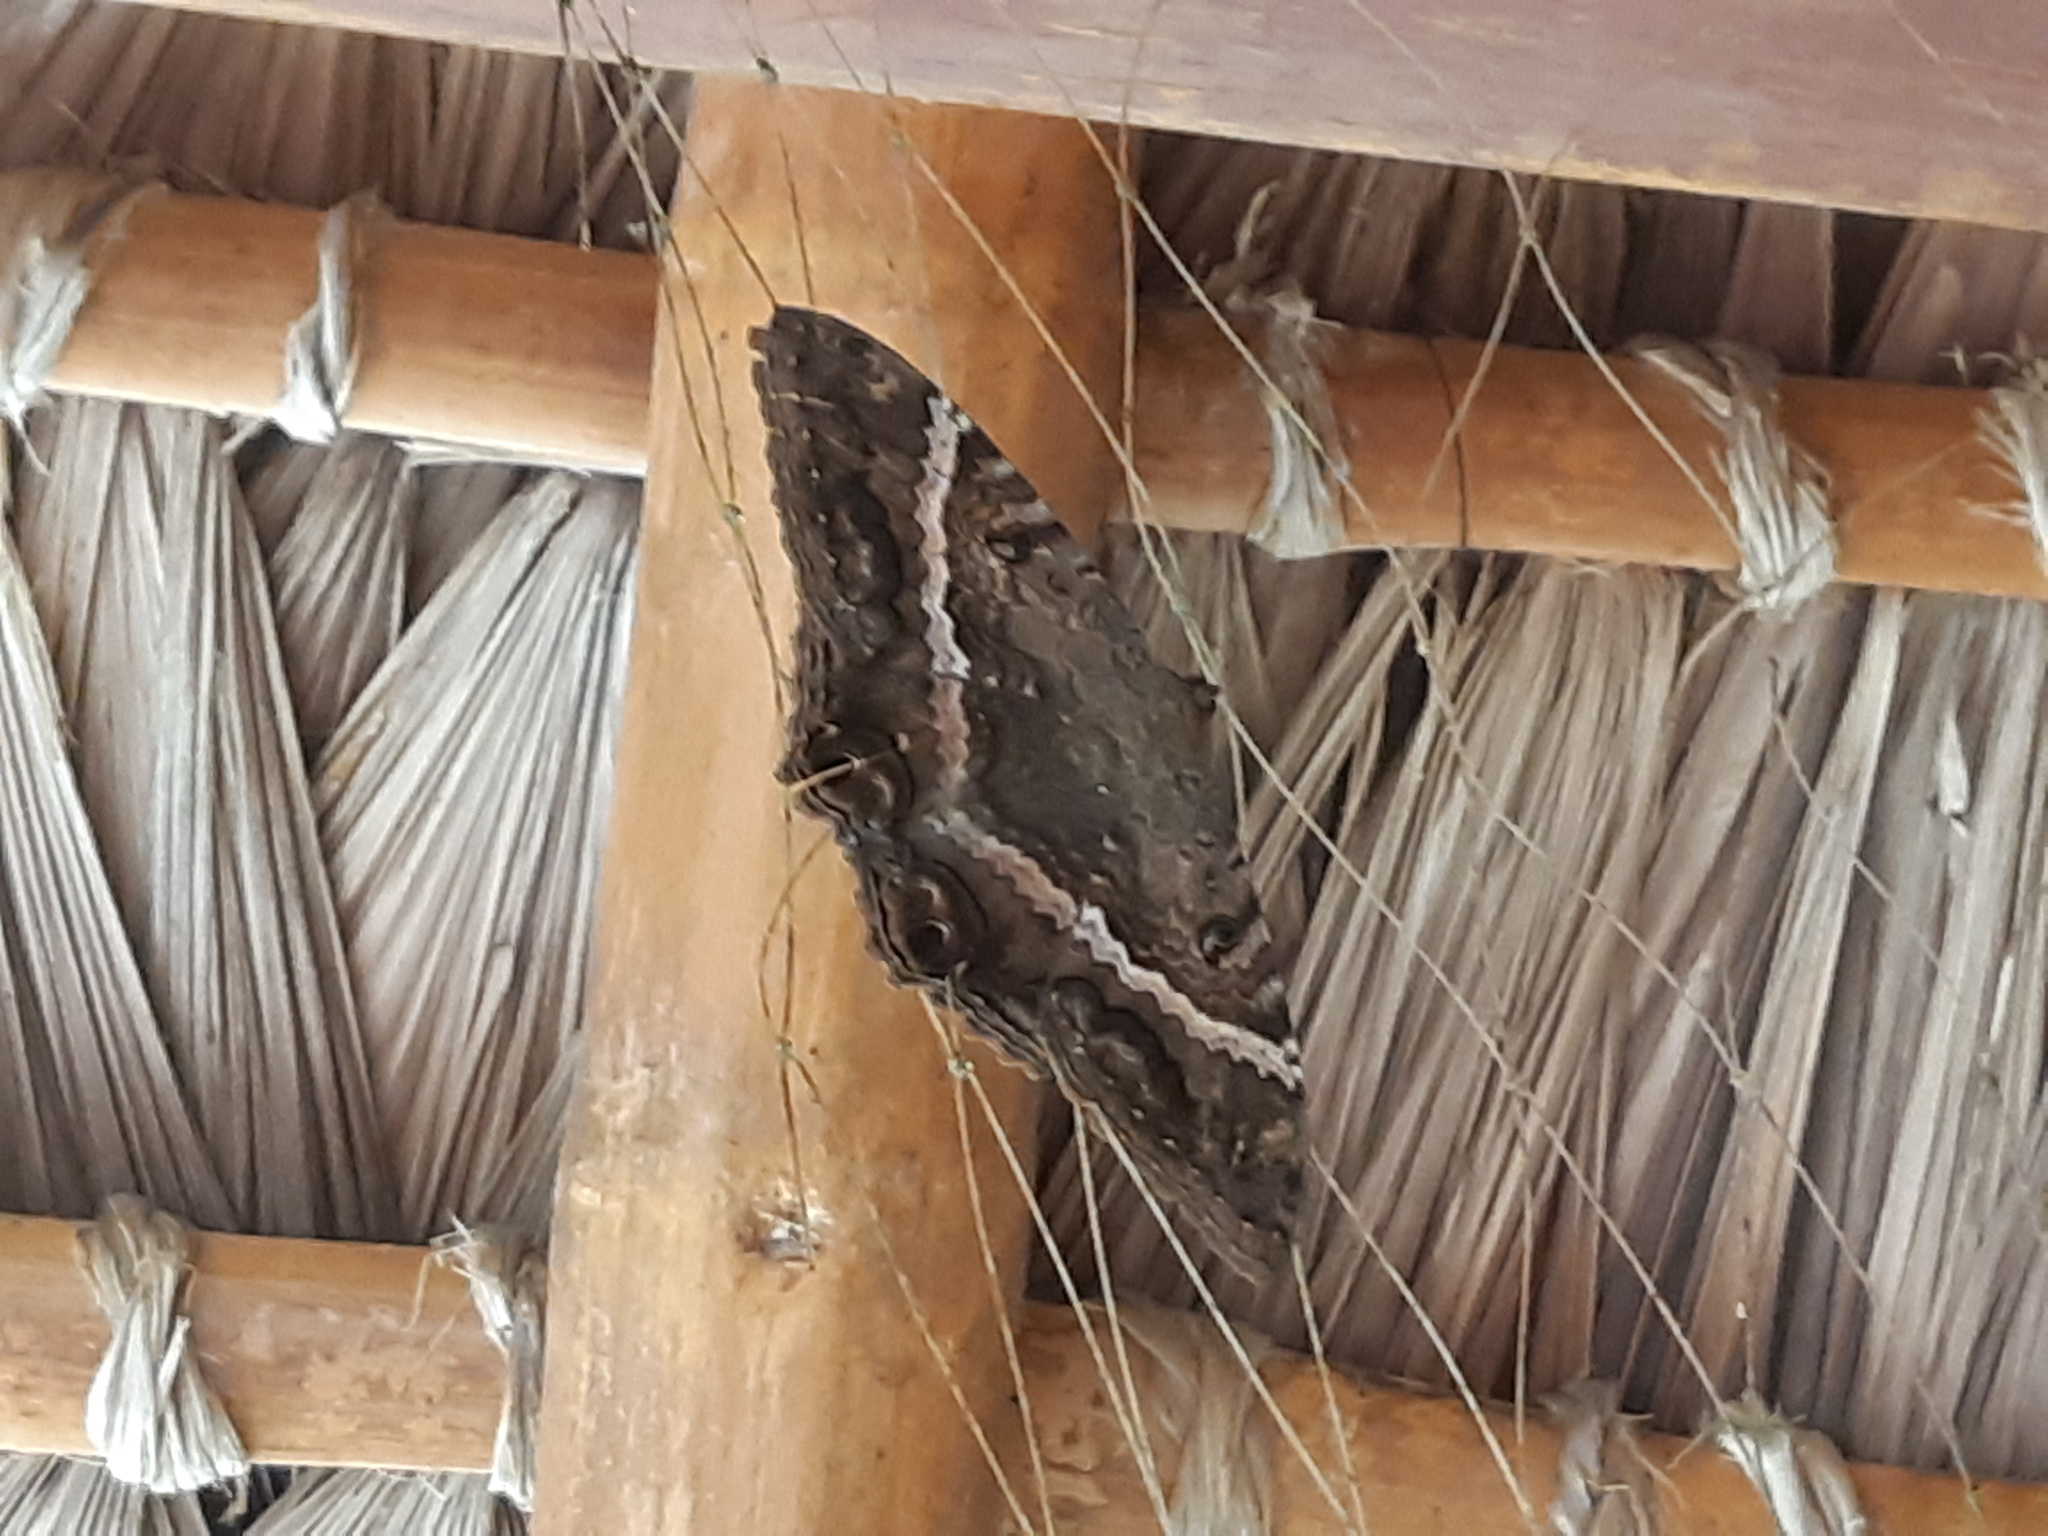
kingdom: Animalia
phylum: Arthropoda
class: Insecta
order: Lepidoptera
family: Erebidae
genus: Ascalapha
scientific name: Ascalapha odorata
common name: Black witch
